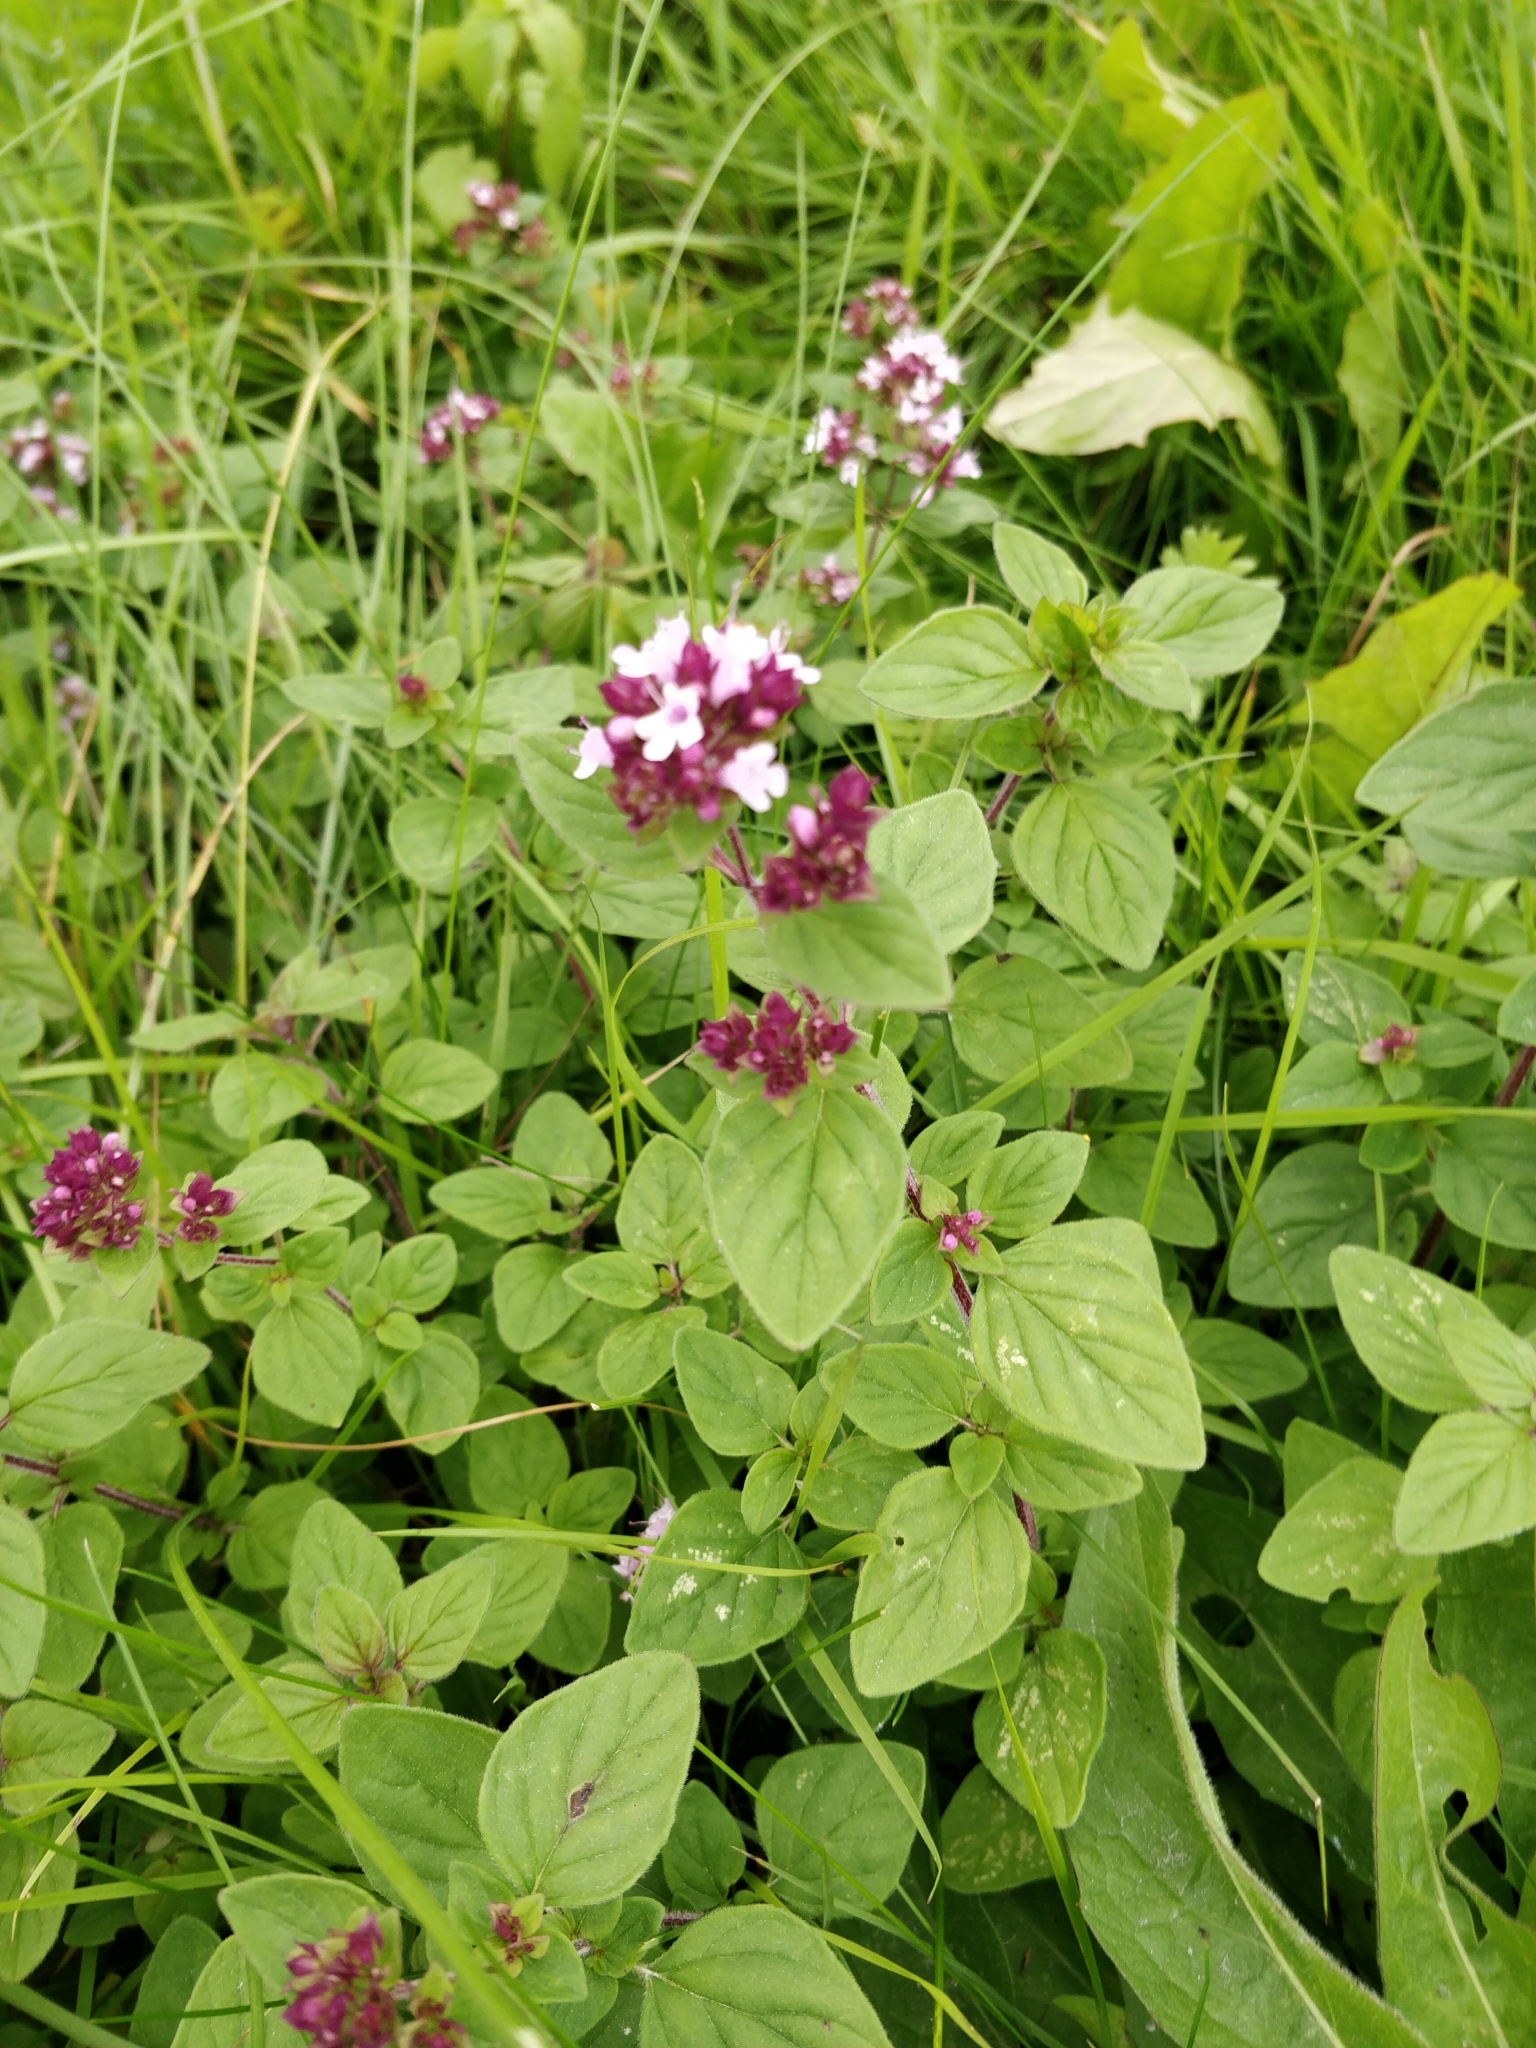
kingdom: Plantae
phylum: Tracheophyta
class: Magnoliopsida
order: Lamiales
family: Lamiaceae
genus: Origanum
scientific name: Origanum vulgare
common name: Wild marjoram
